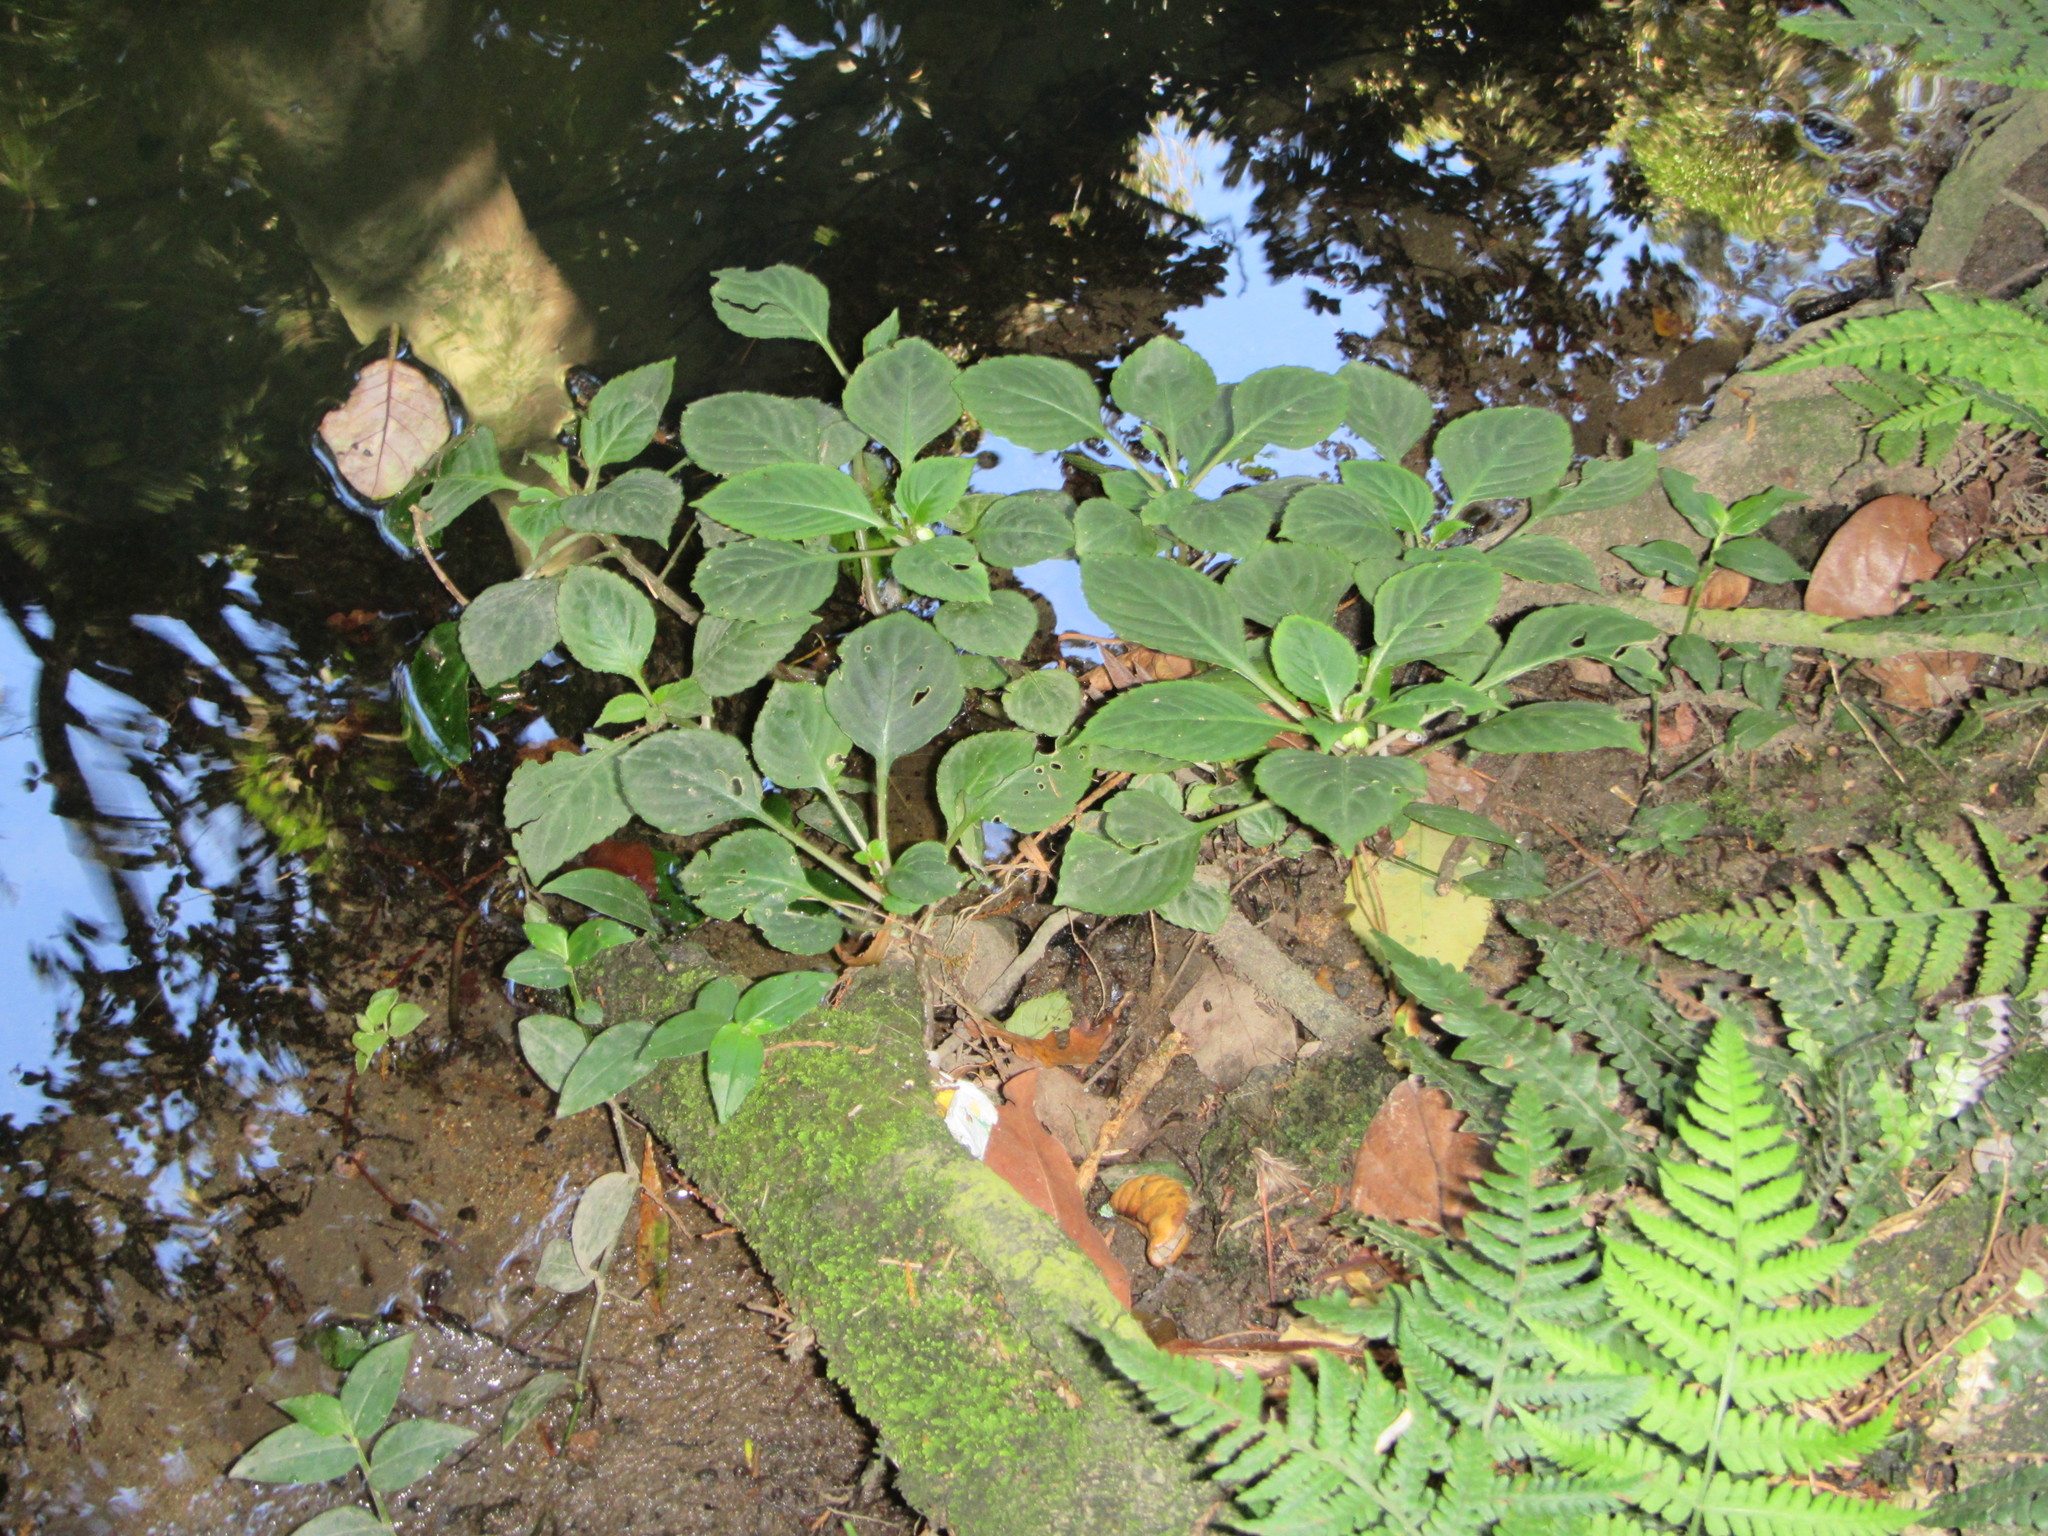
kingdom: Plantae
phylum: Tracheophyta
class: Magnoliopsida
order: Ericales
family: Balsaminaceae
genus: Impatiens
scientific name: Impatiens walleriana
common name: Buzzy lizzy
